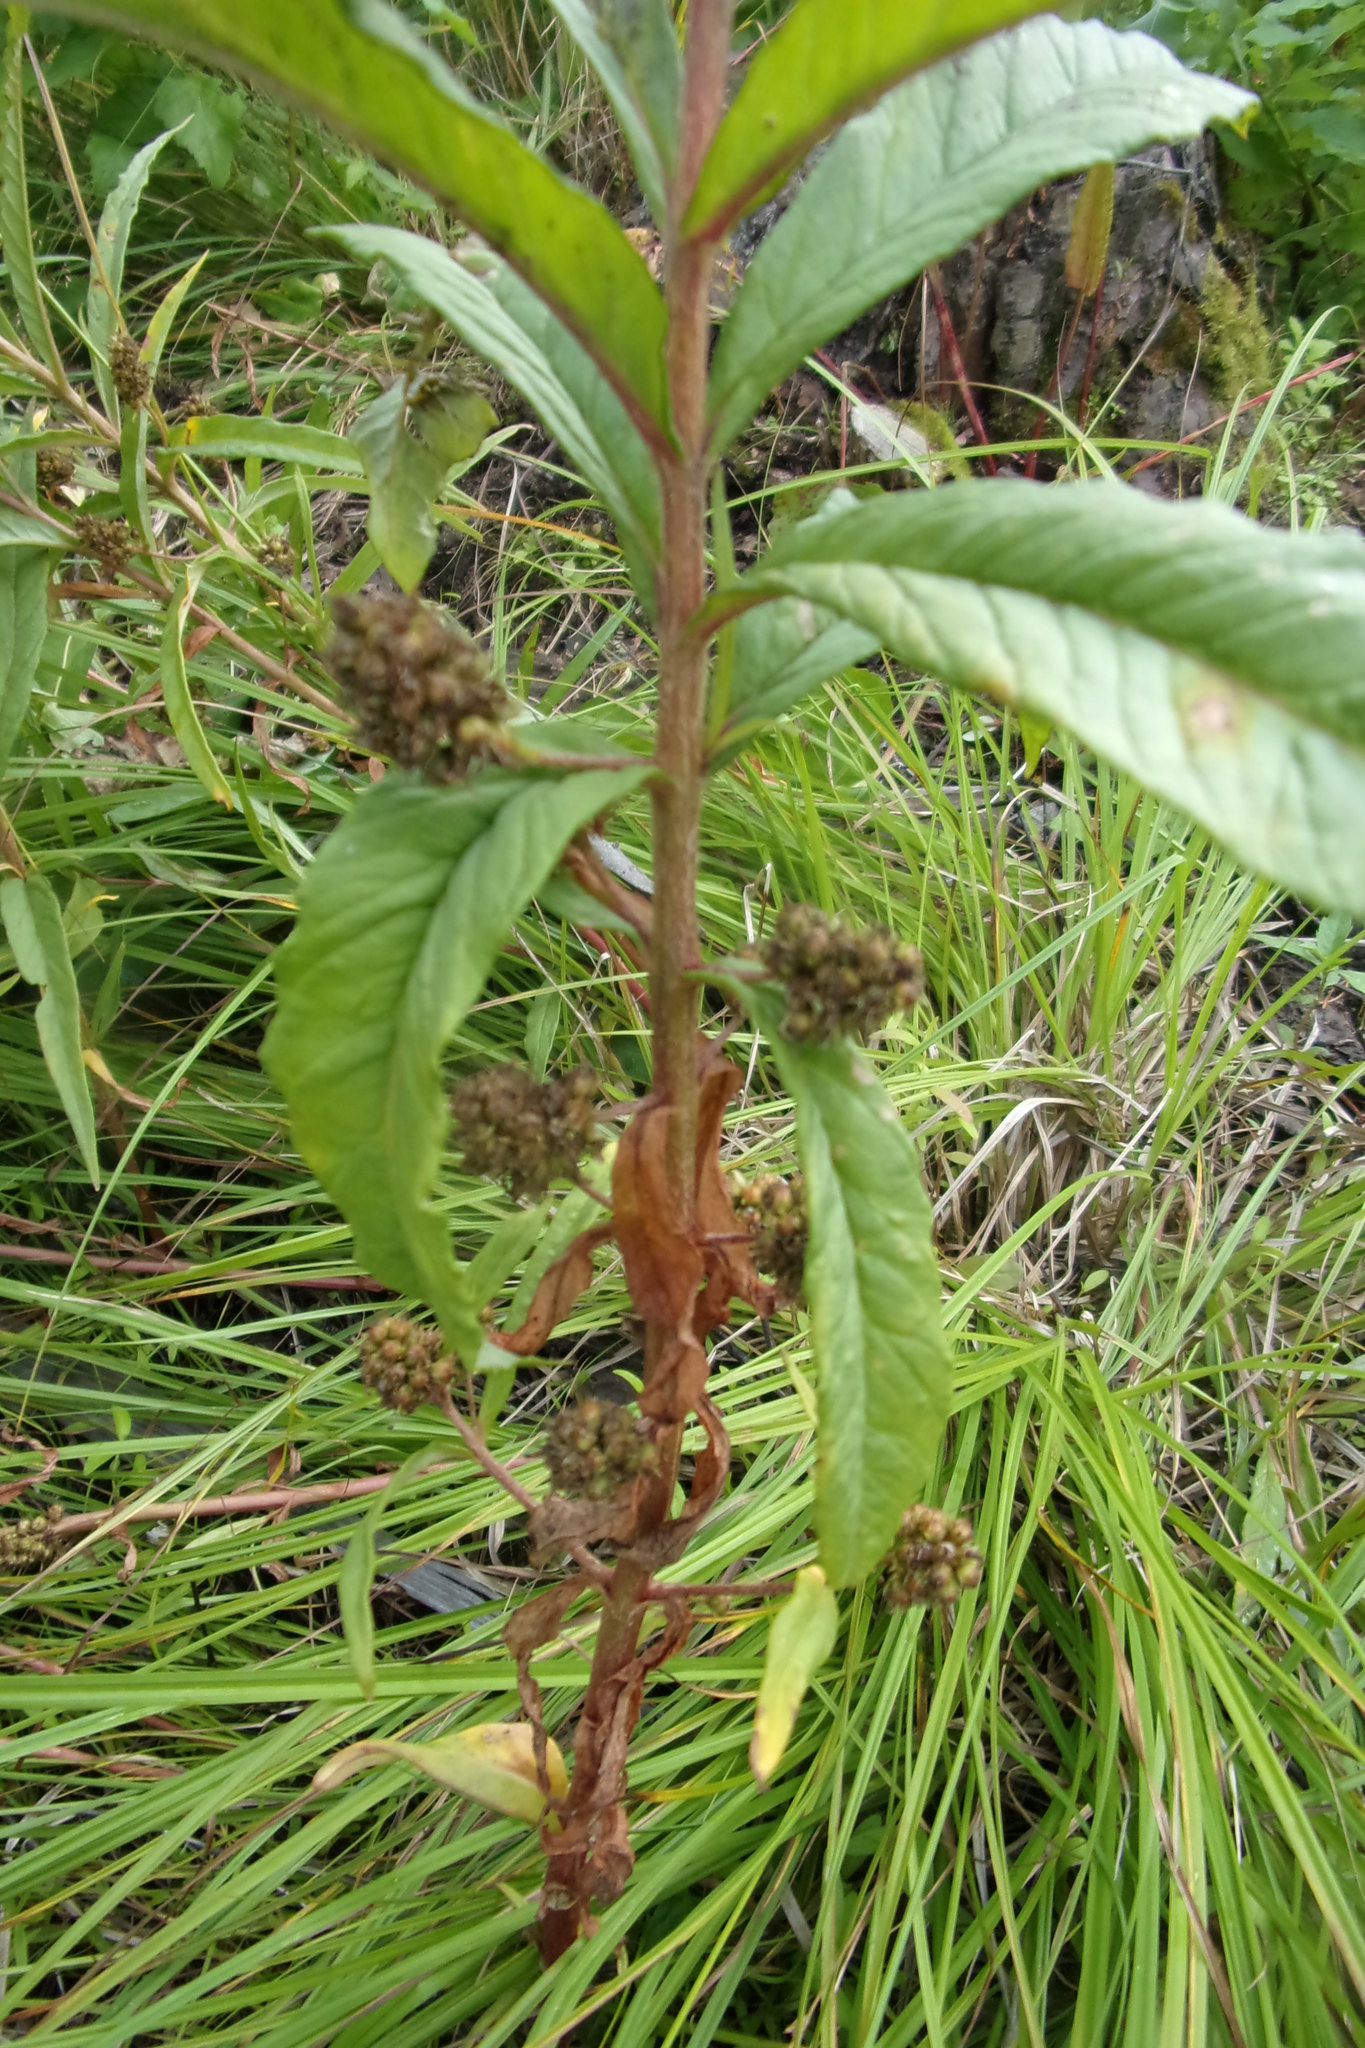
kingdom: Plantae
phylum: Tracheophyta
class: Magnoliopsida
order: Ericales
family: Primulaceae
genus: Lysimachia
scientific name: Lysimachia thyrsiflora
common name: Tufted loosestrife
